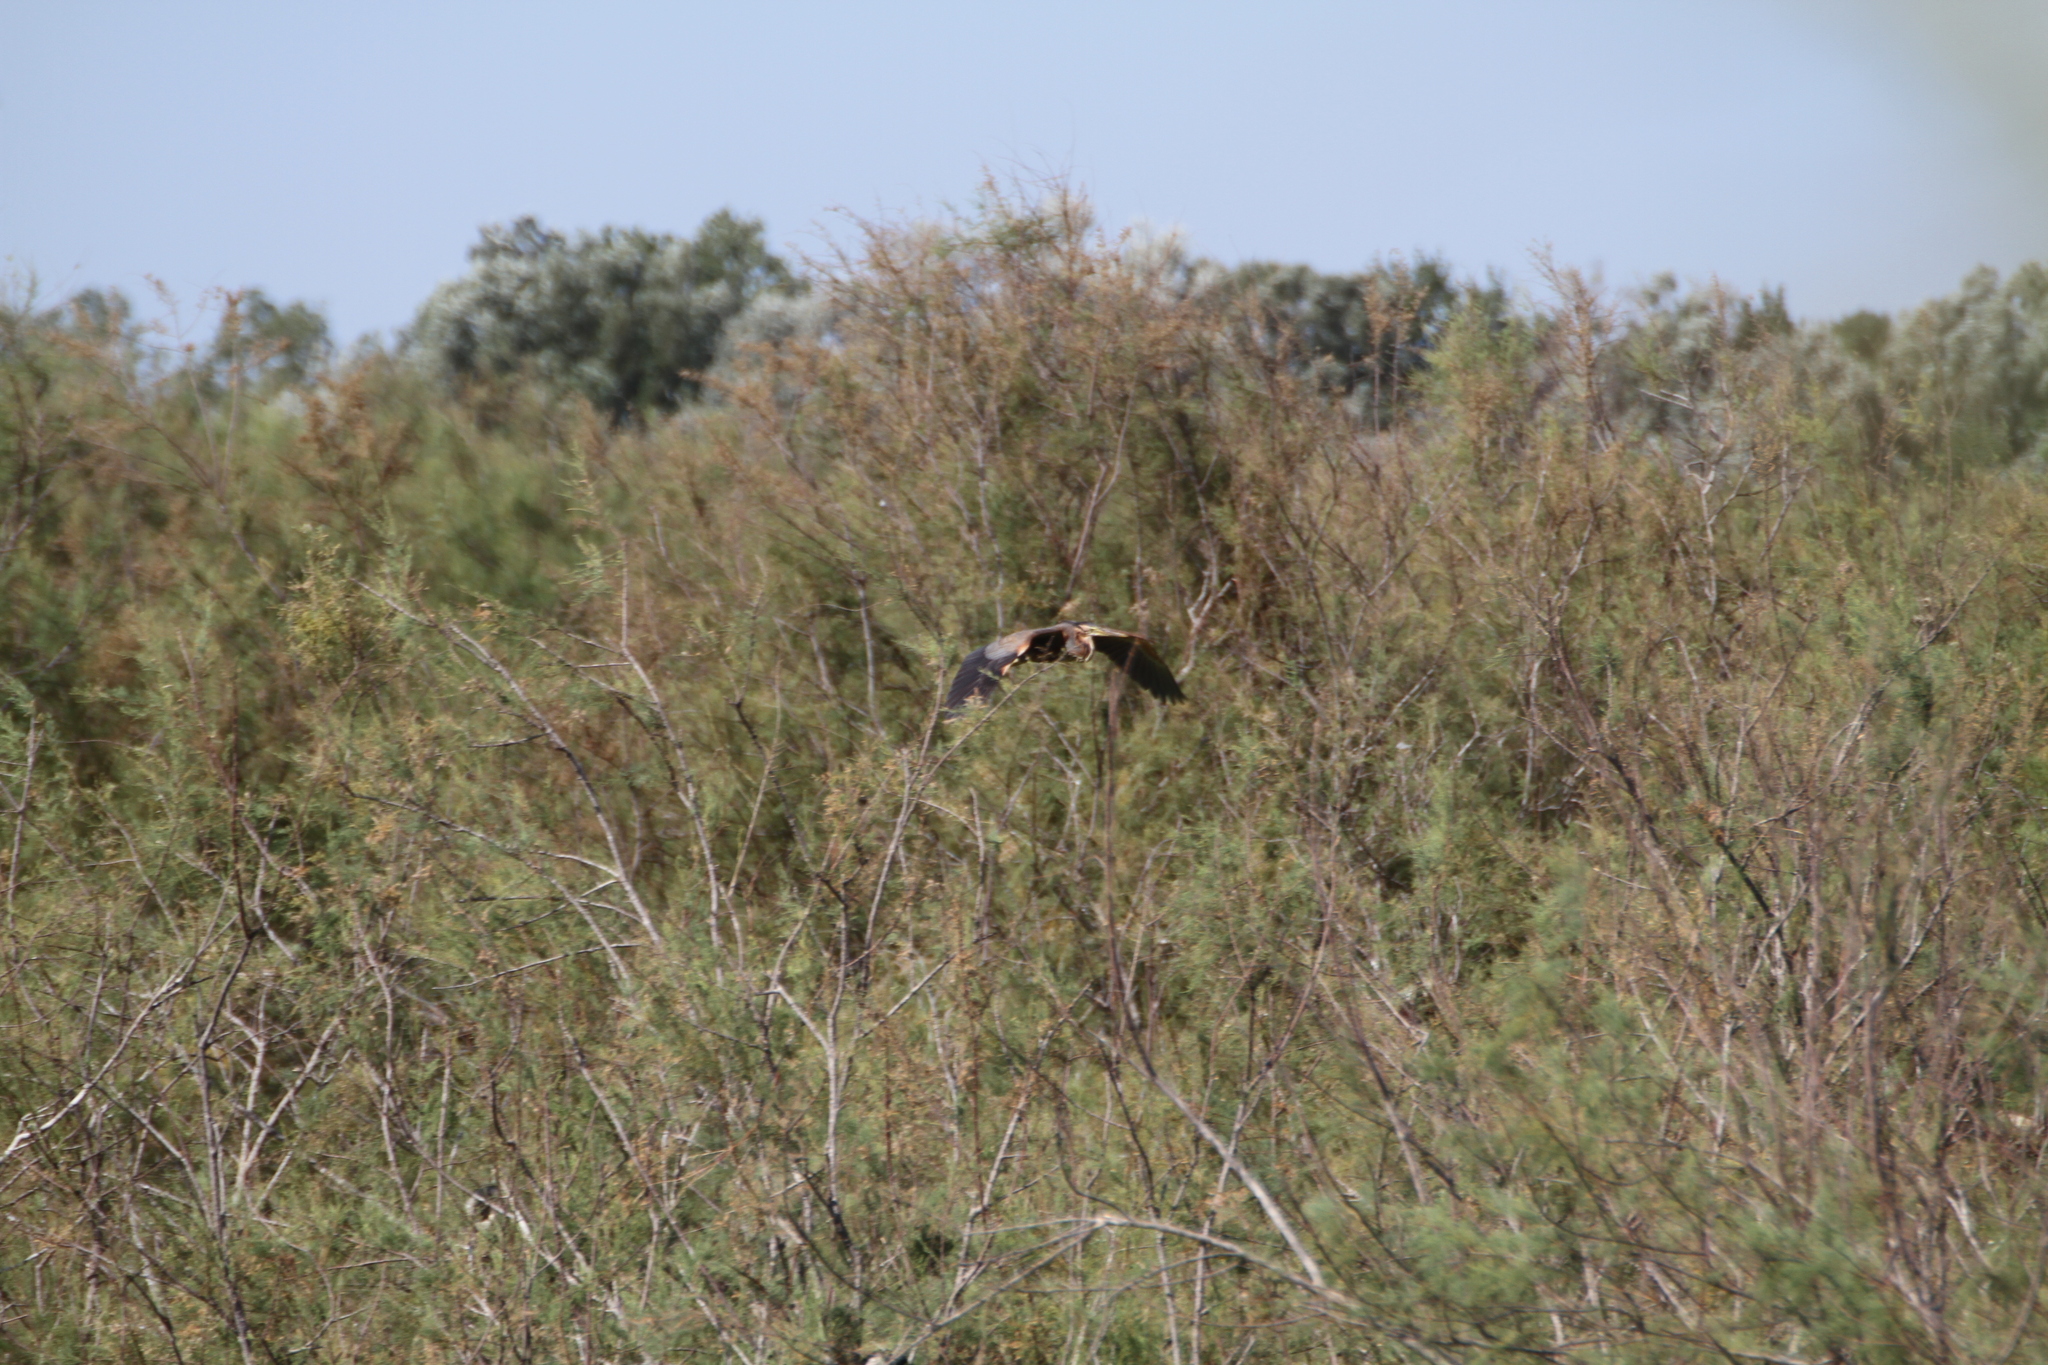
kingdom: Animalia
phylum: Chordata
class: Aves
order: Pelecaniformes
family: Ardeidae
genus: Ardea
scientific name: Ardea purpurea
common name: Purple heron
